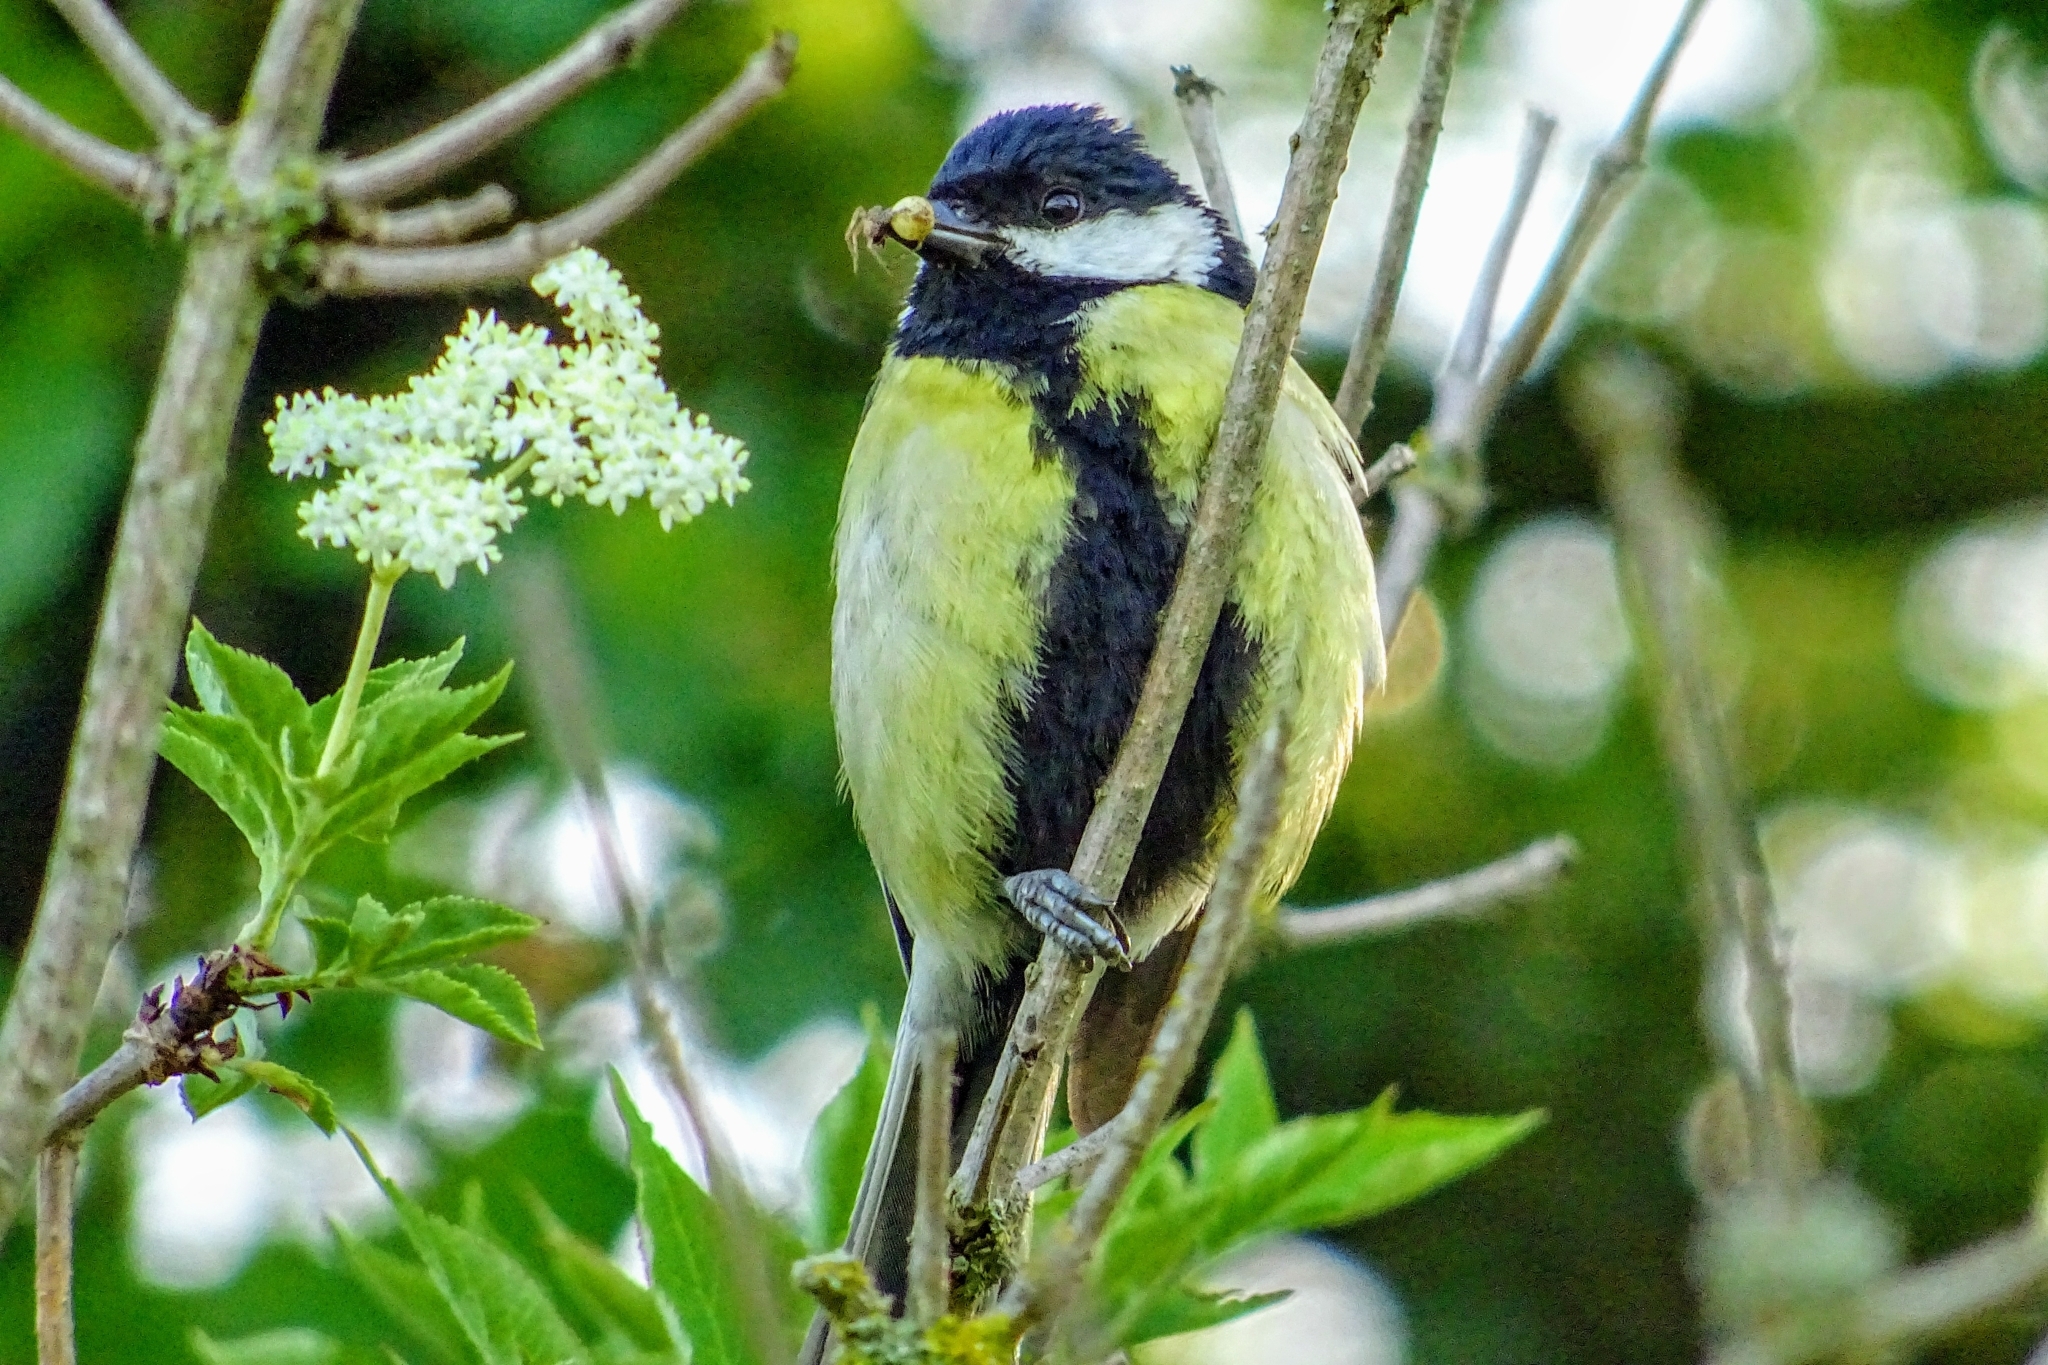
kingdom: Animalia
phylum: Chordata
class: Aves
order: Passeriformes
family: Paridae
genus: Parus
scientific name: Parus major
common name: Great tit
